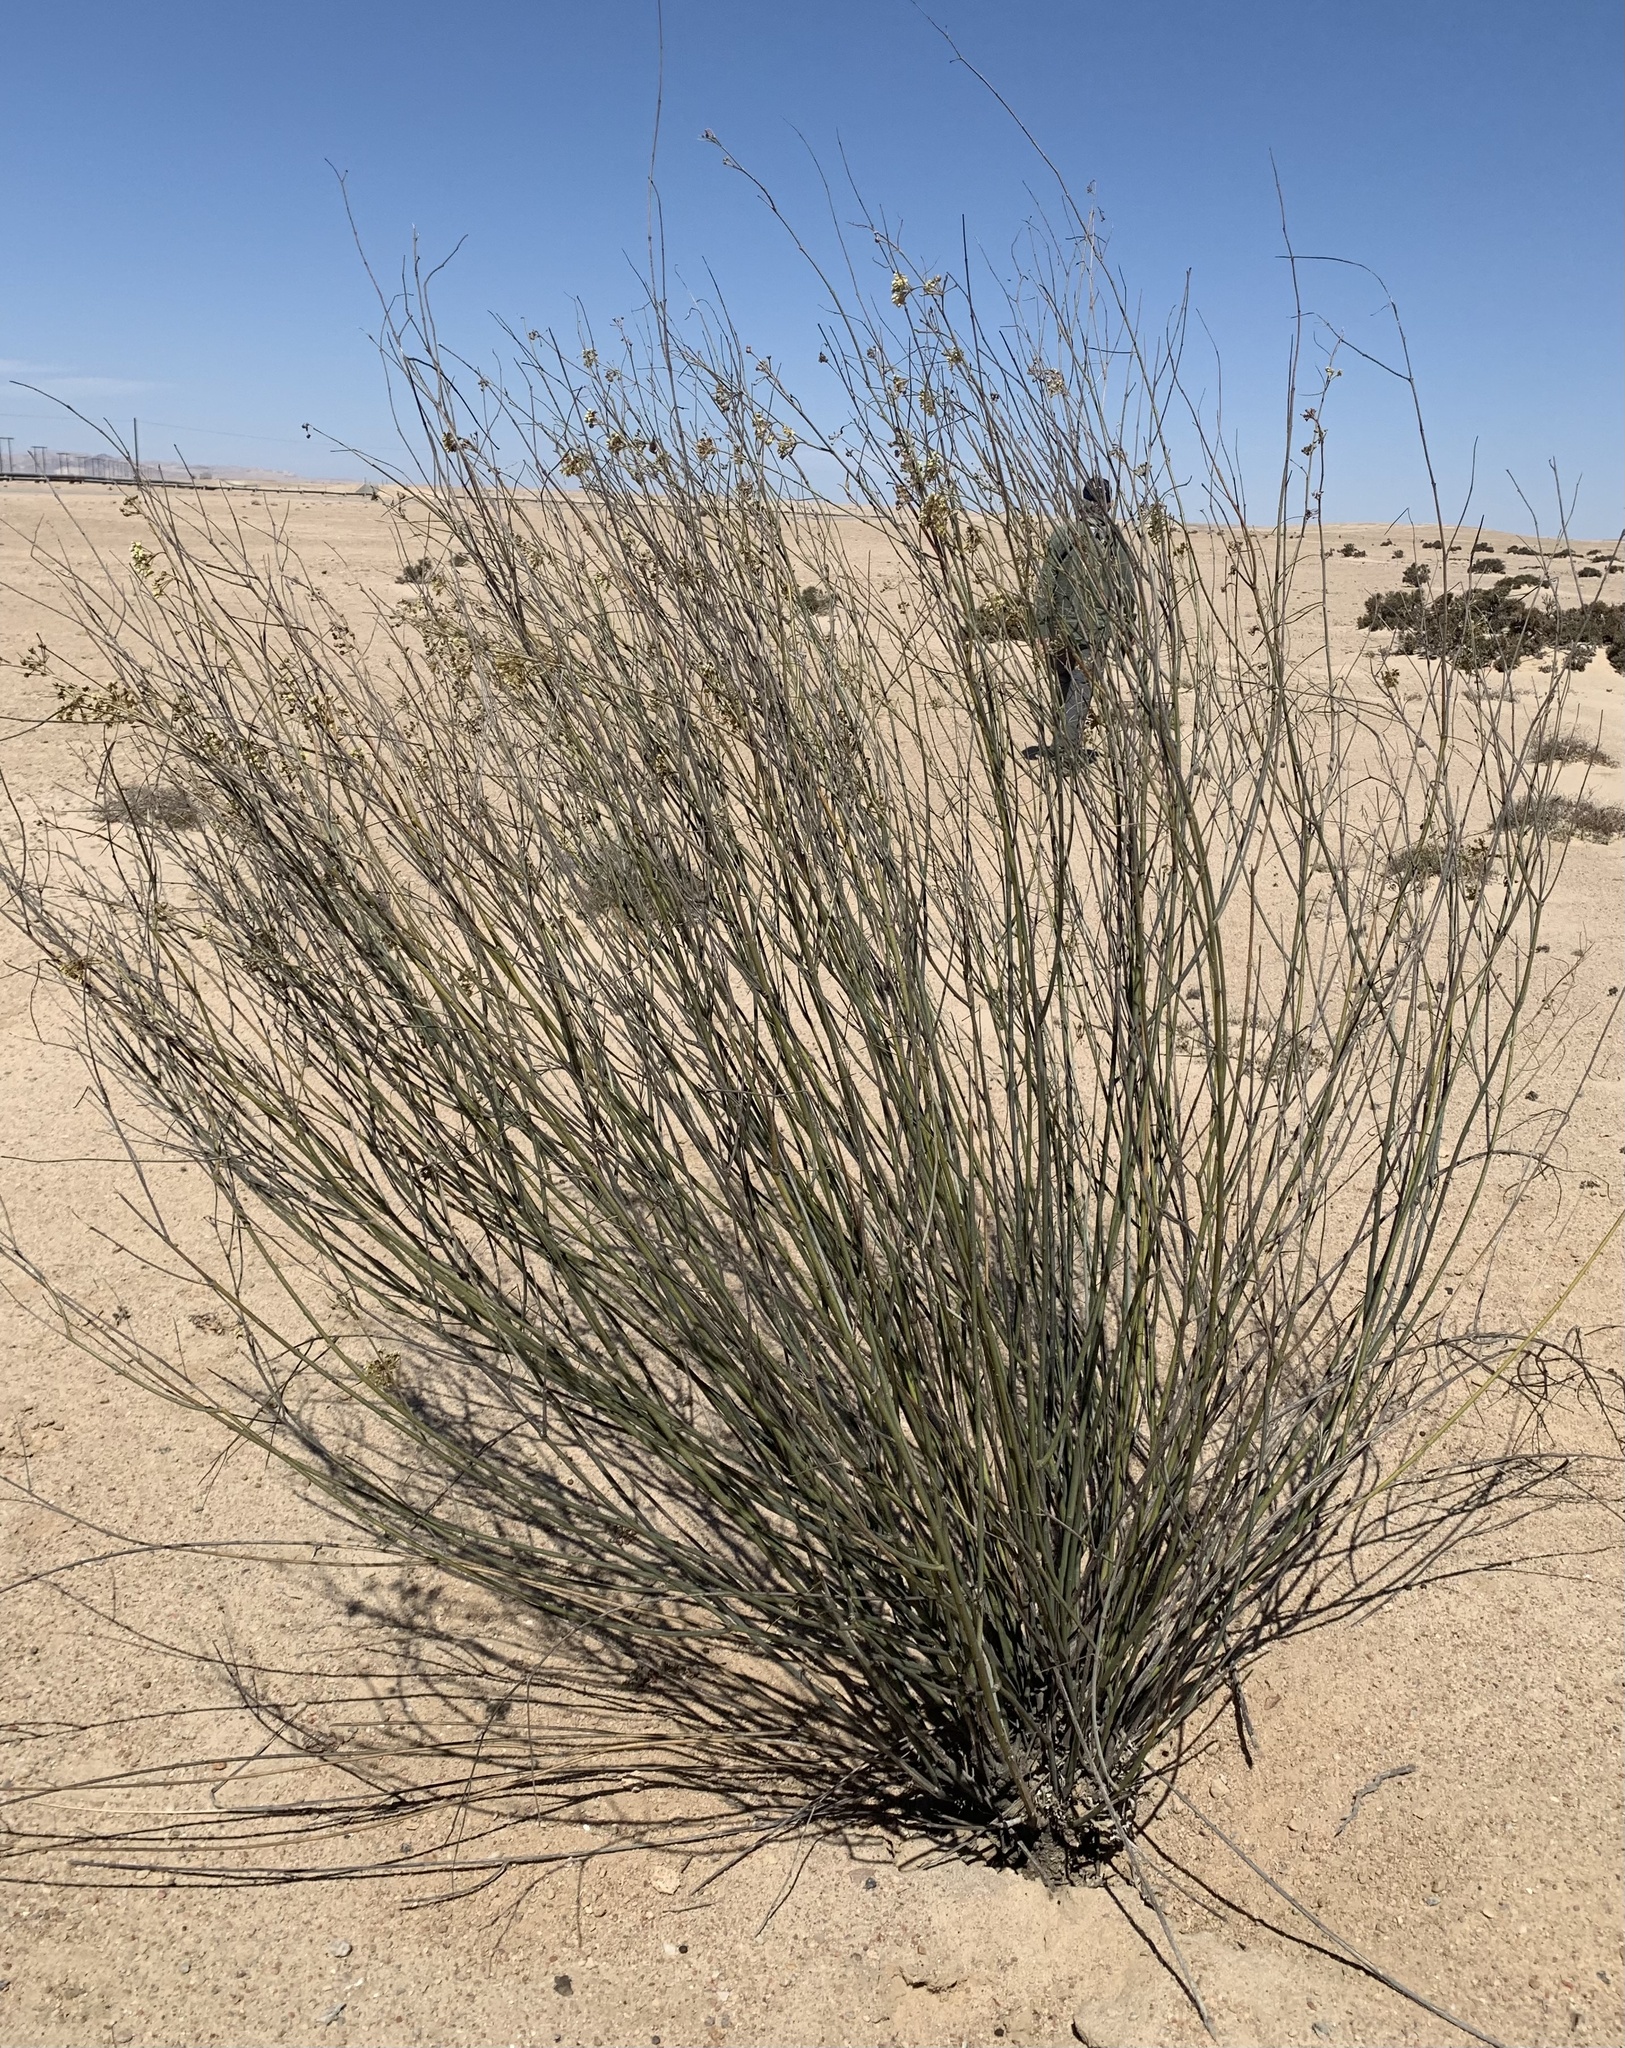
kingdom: Plantae
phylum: Tracheophyta
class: Magnoliopsida
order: Gentianales
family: Apocynaceae
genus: Gomphocarpus
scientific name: Gomphocarpus filiformis
